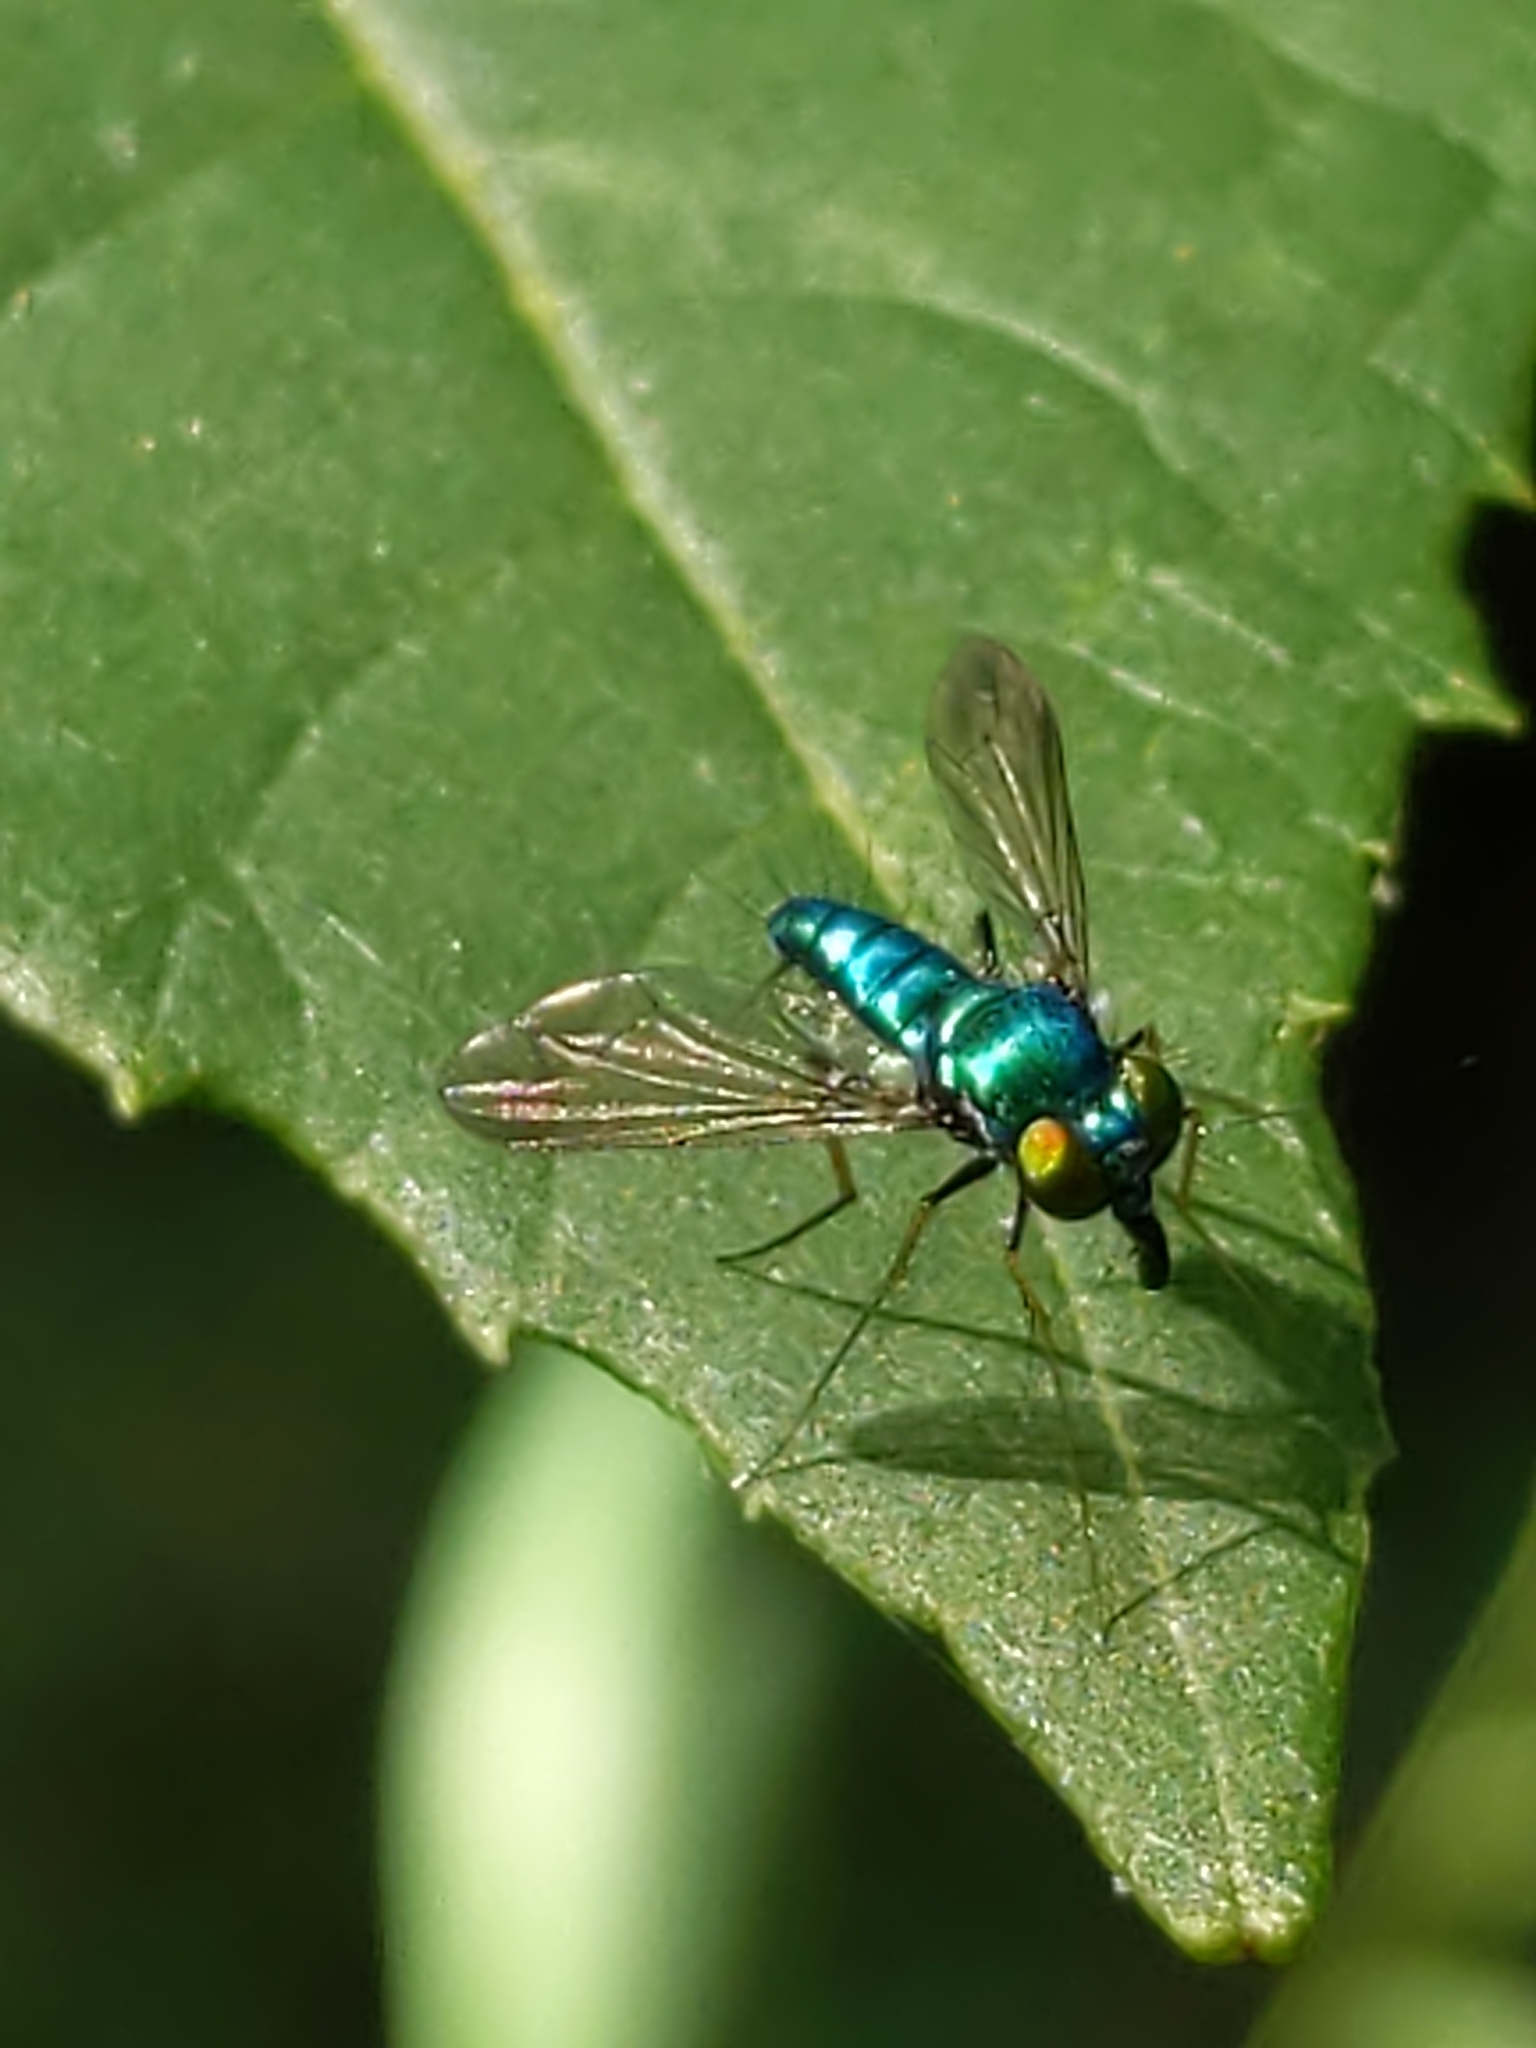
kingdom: Animalia
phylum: Arthropoda
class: Insecta
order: Diptera
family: Dolichopodidae
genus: Condylostylus
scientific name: Condylostylus
